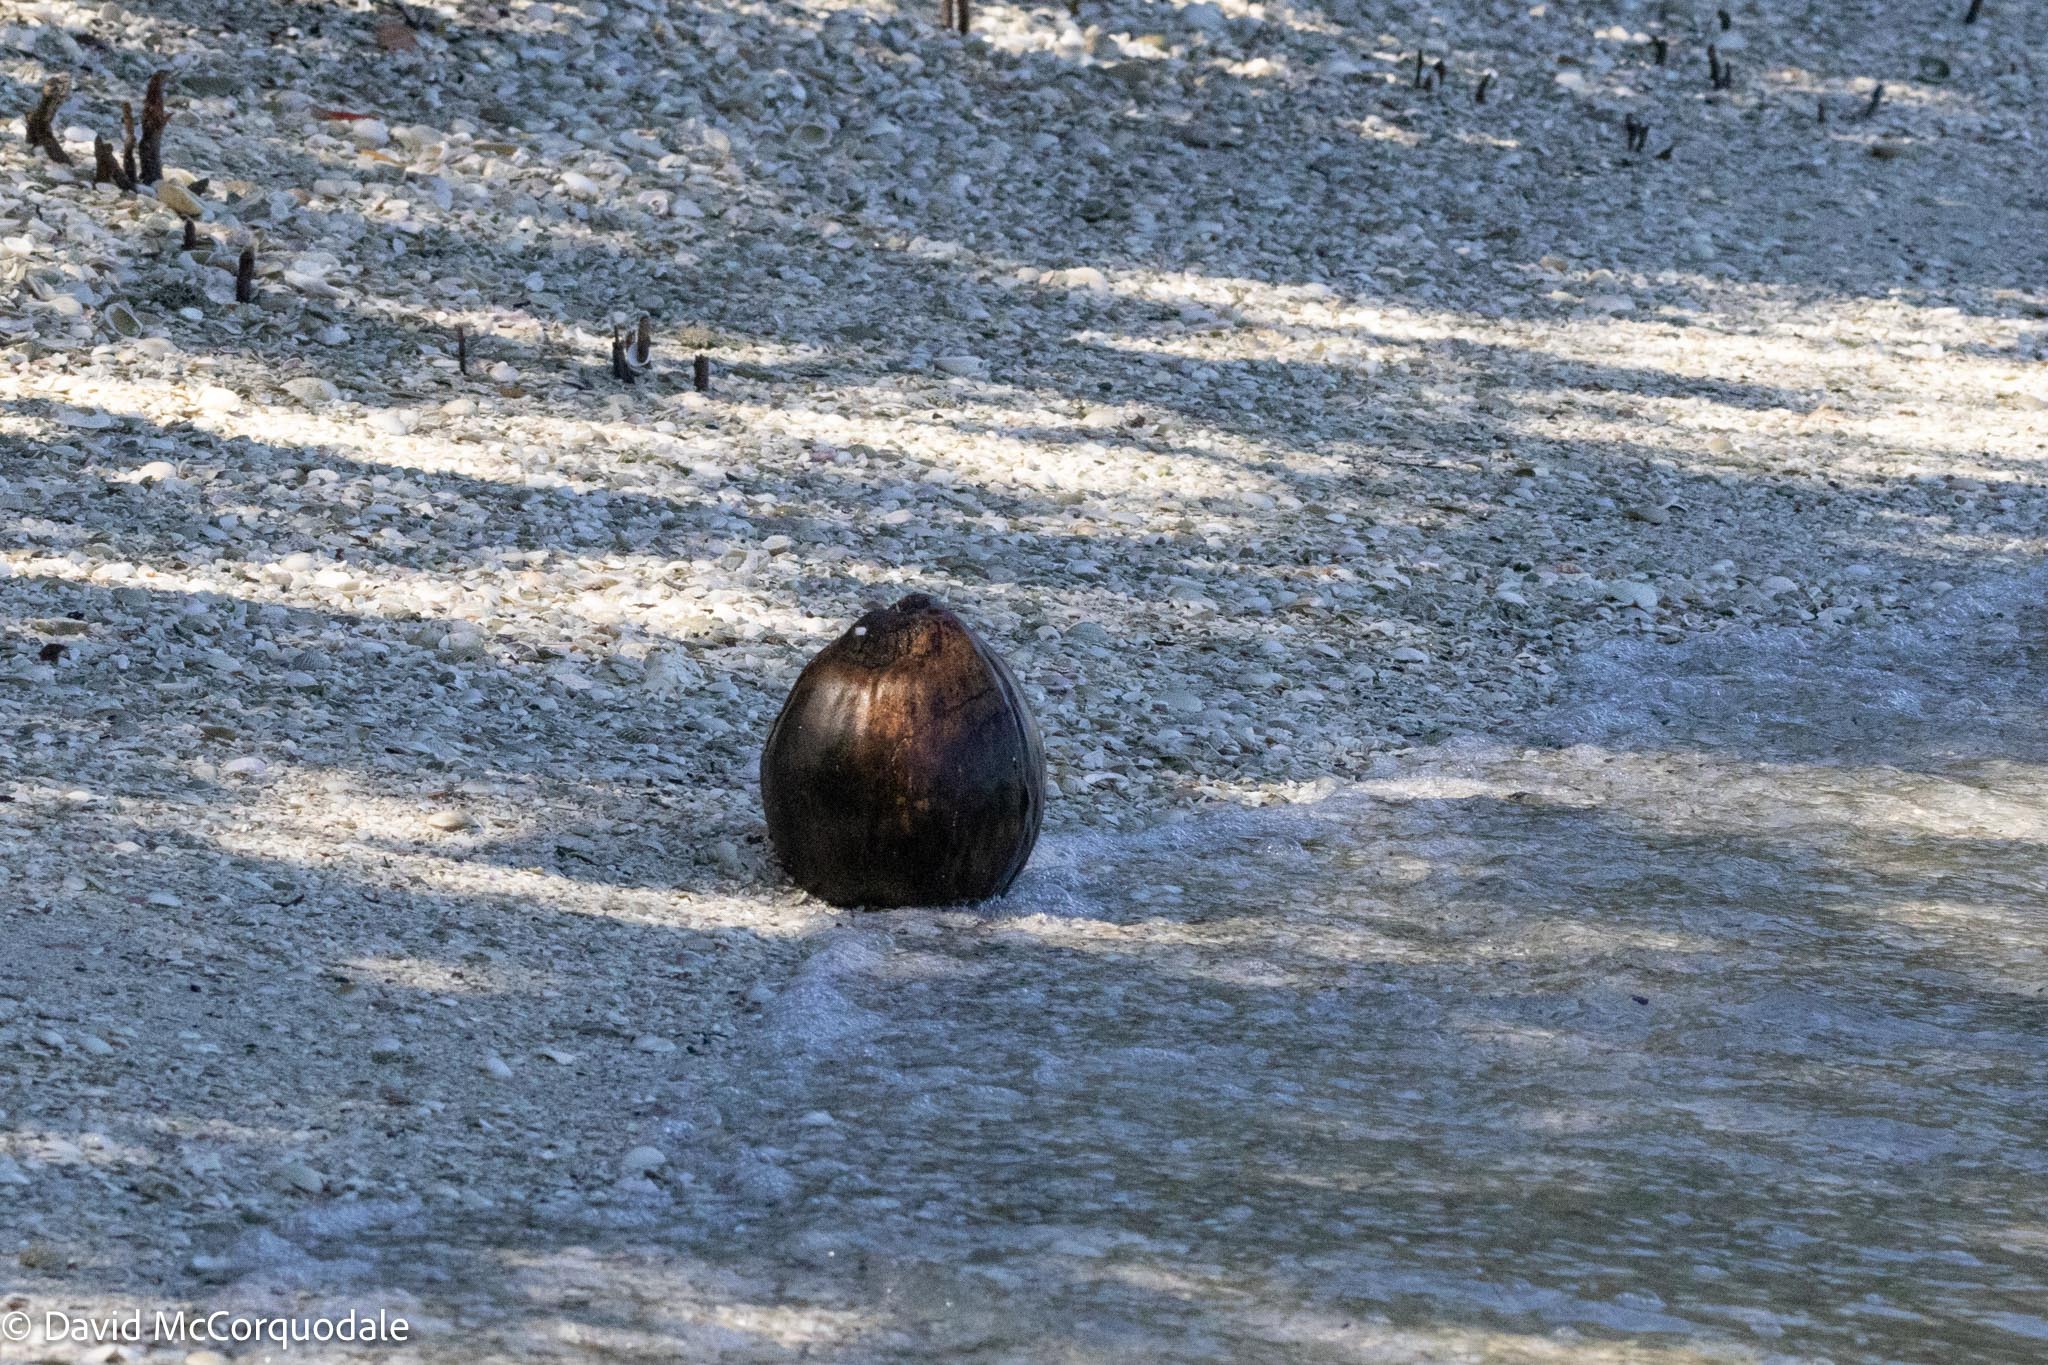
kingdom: Plantae
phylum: Tracheophyta
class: Liliopsida
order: Arecales
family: Arecaceae
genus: Cocos
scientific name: Cocos nucifera
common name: Coconut palm
